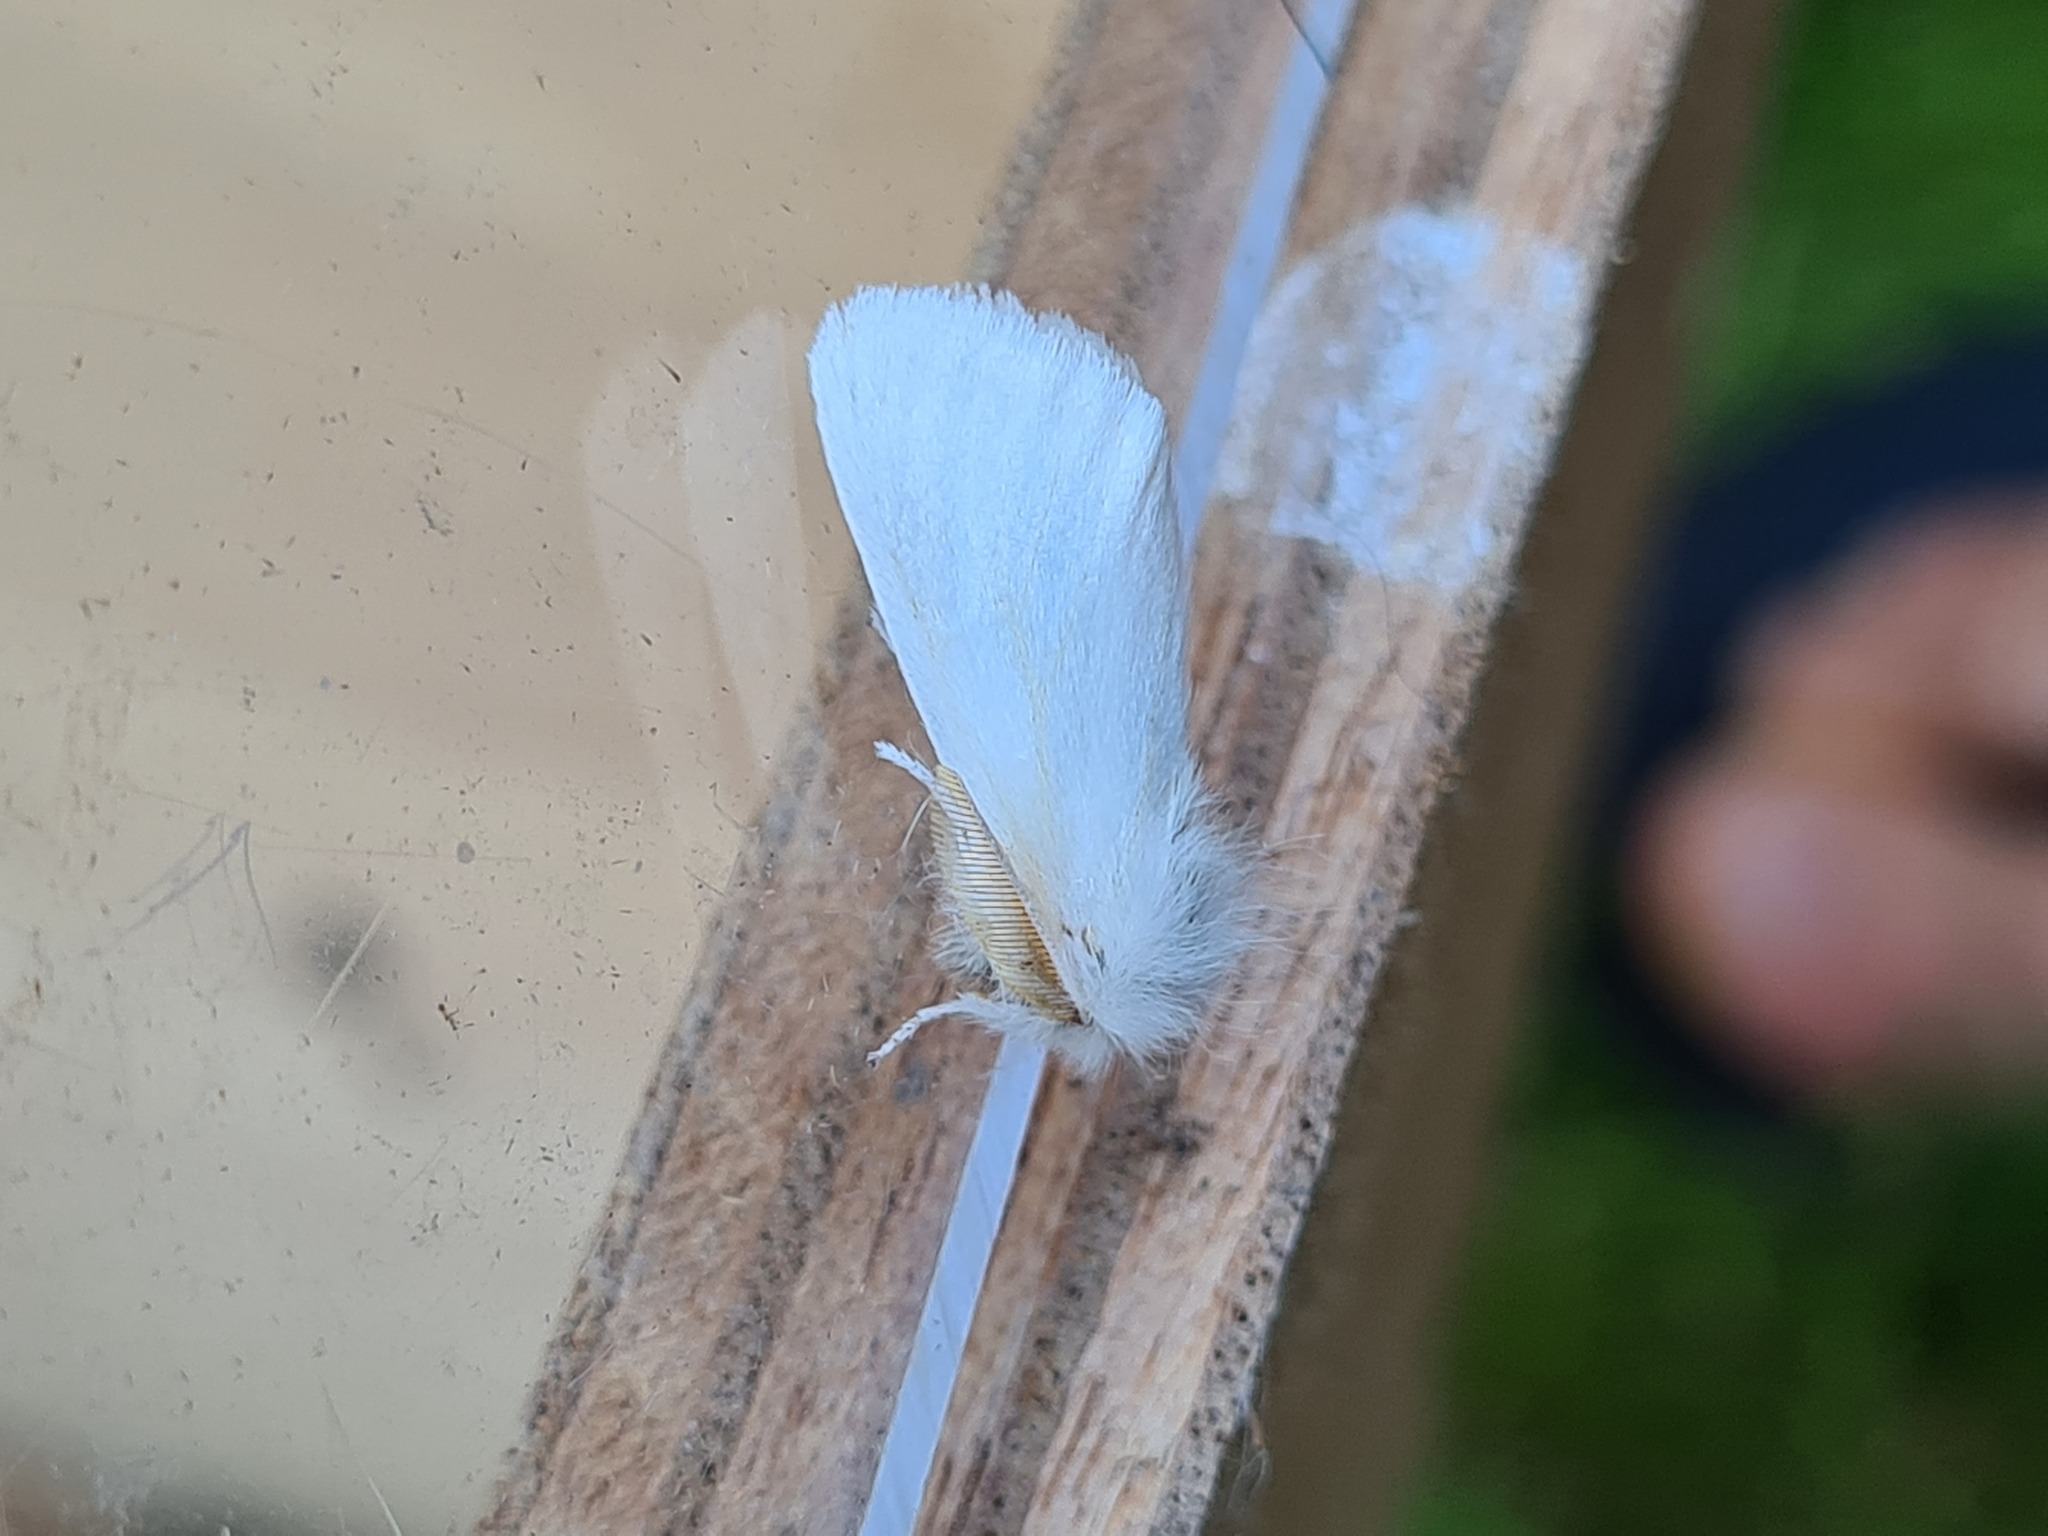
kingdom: Animalia
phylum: Arthropoda
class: Insecta
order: Lepidoptera
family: Erebidae
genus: Euproctis
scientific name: Euproctis chrysorrhoea
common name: Brown-tail
